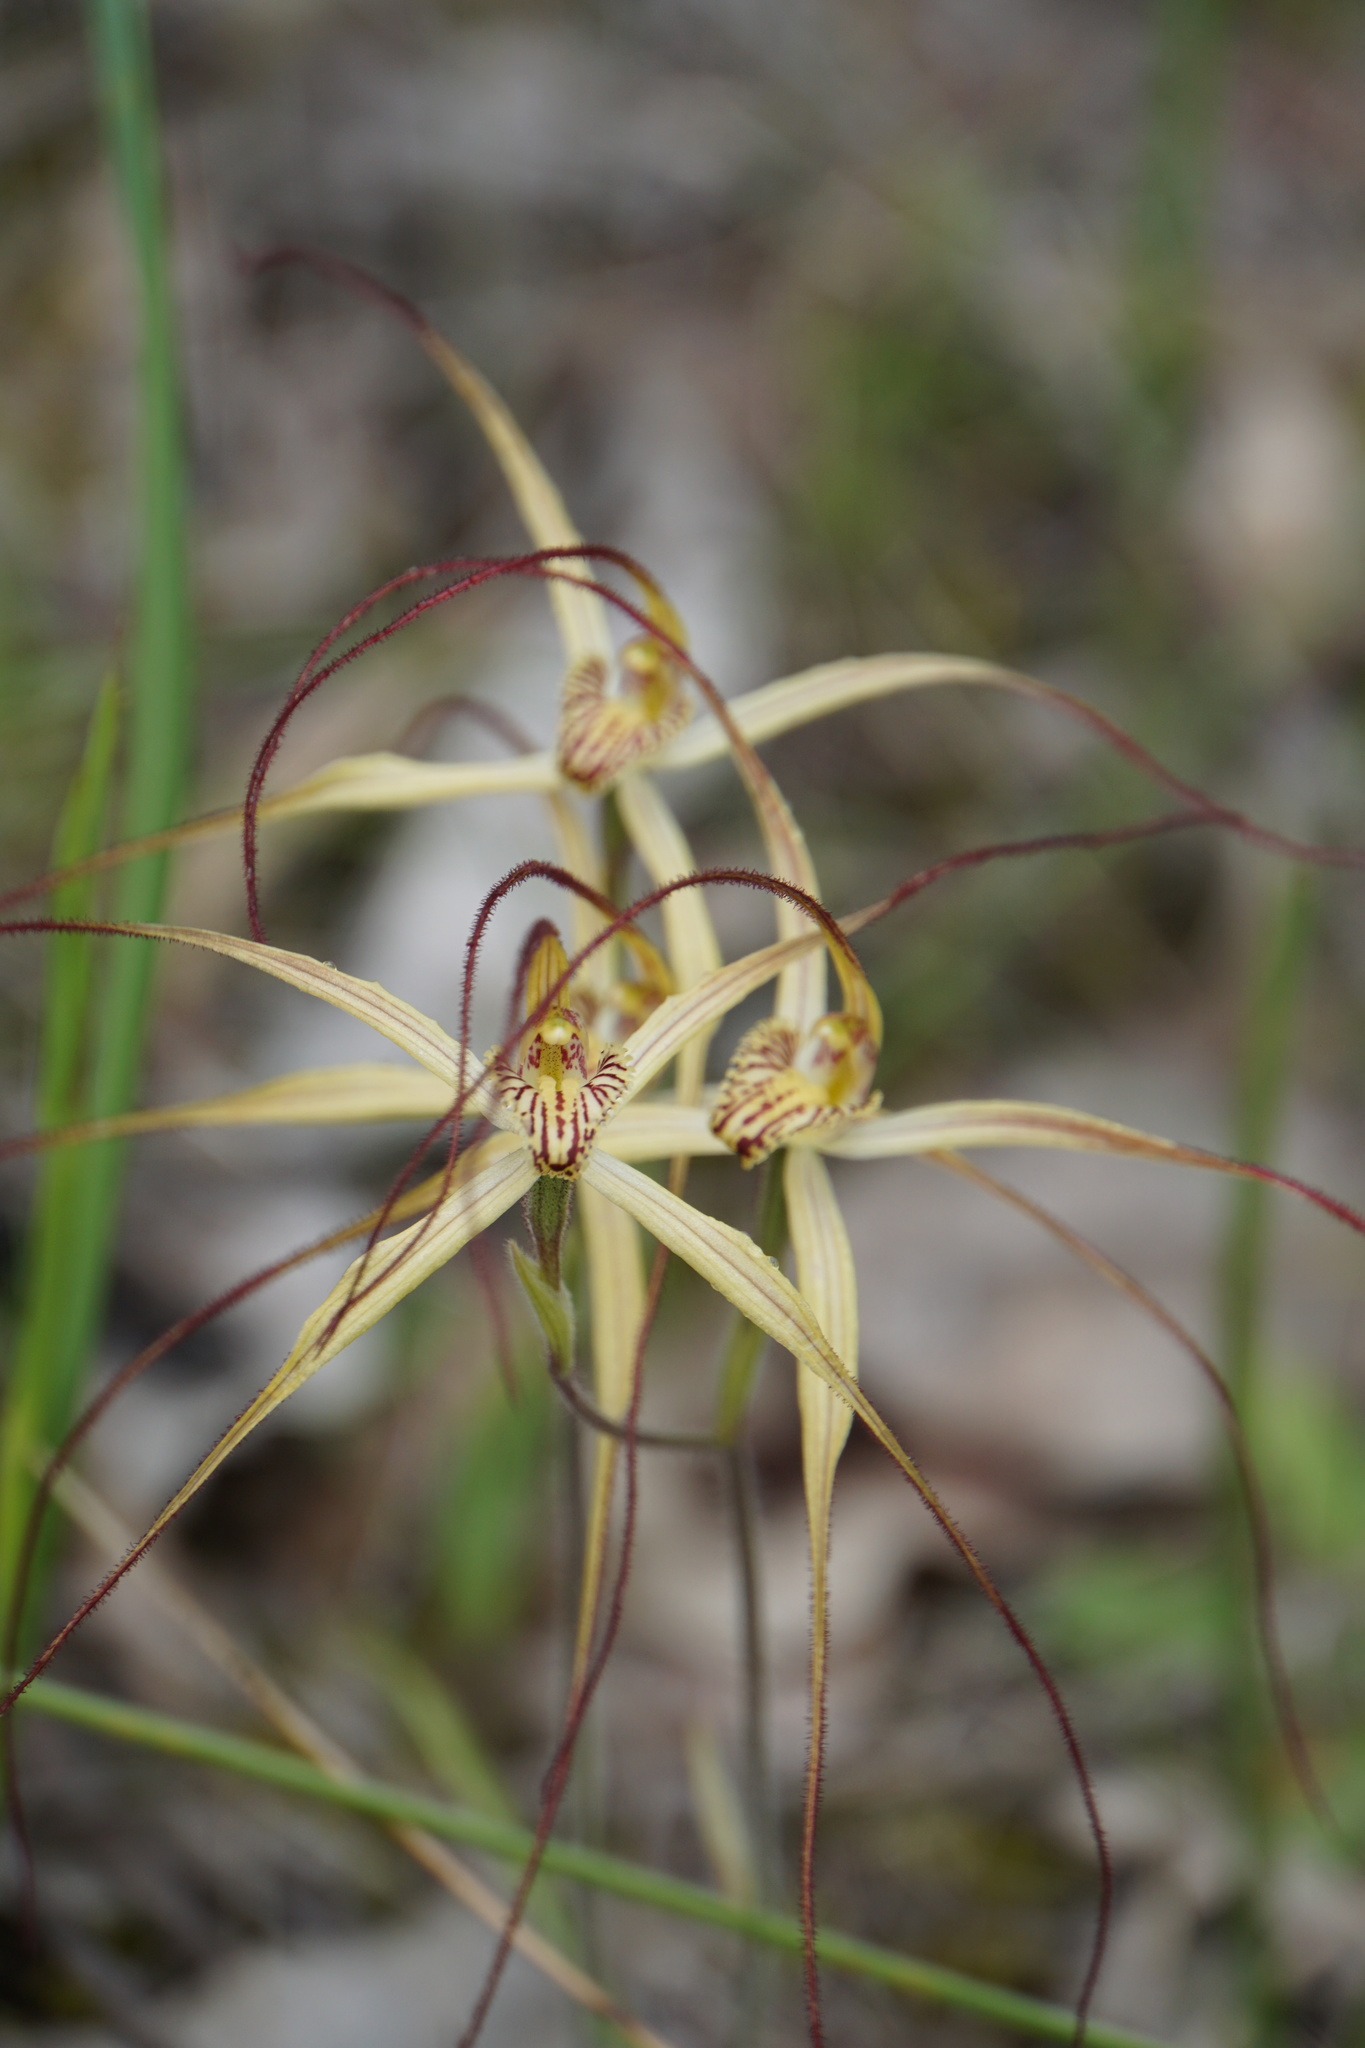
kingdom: Plantae
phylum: Tracheophyta
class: Liliopsida
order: Asparagales
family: Orchidaceae
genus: Caladenia
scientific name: Caladenia straminichila
